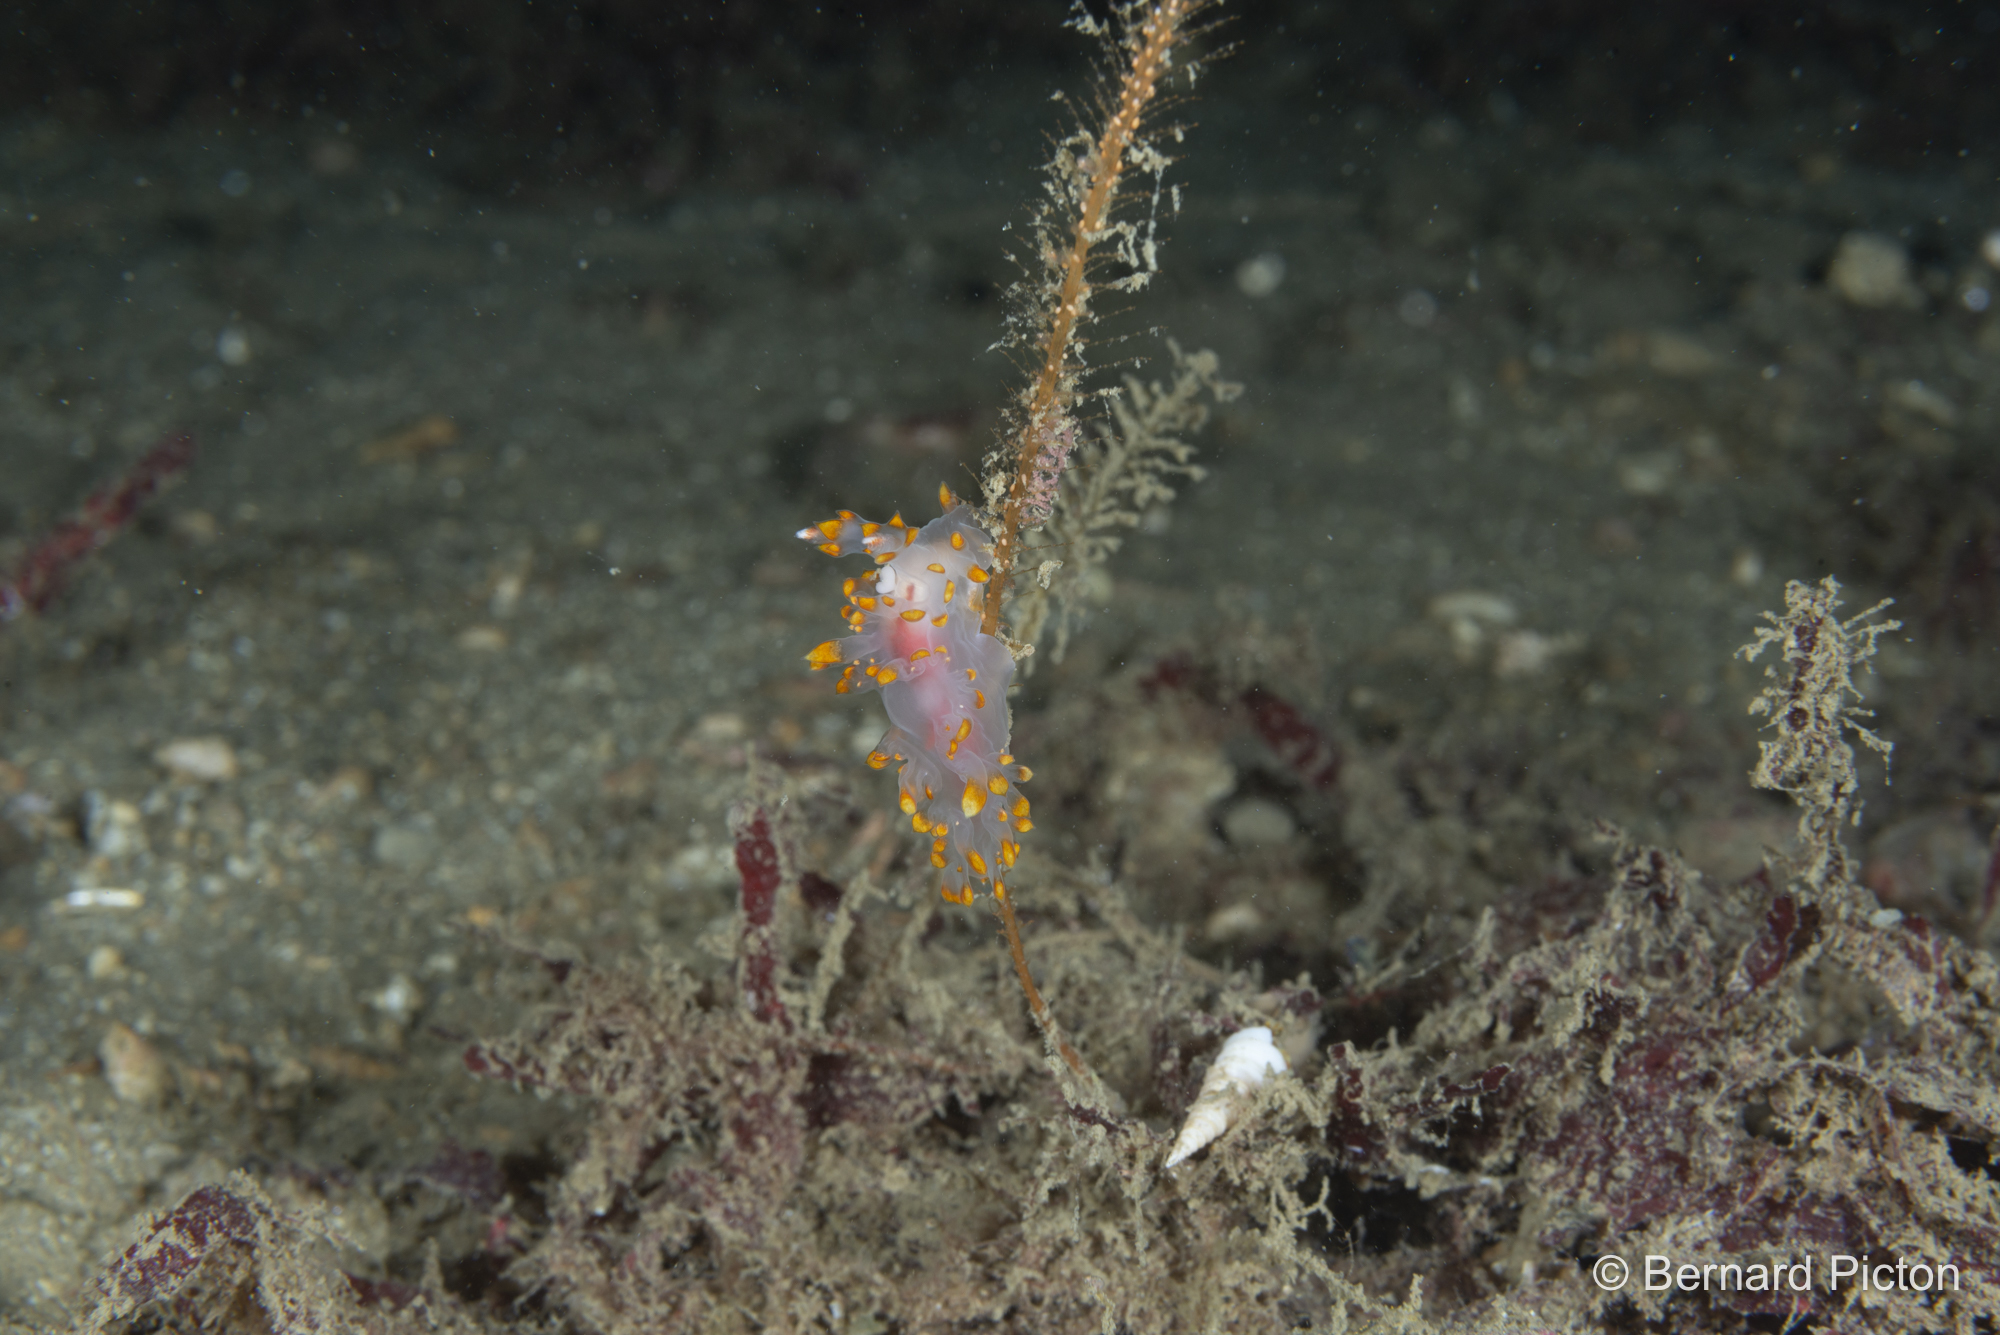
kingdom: Animalia
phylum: Mollusca
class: Gastropoda
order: Nudibranchia
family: Lomanotidae
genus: Lomanotus
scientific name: Lomanotus genei
